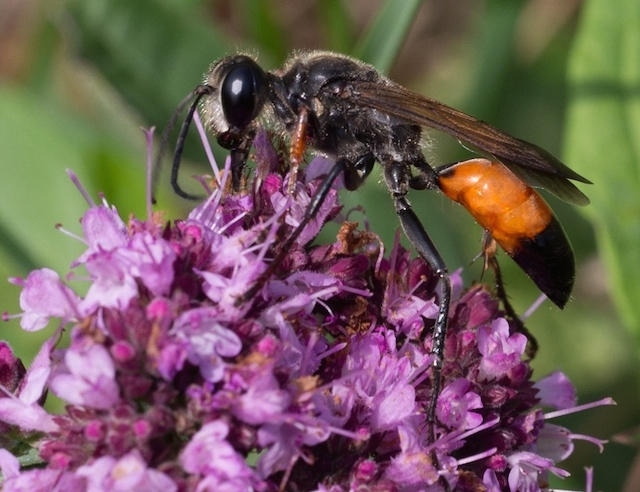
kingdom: Animalia
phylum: Arthropoda
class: Insecta
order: Hymenoptera
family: Sphecidae
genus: Sphex
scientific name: Sphex funerarius
